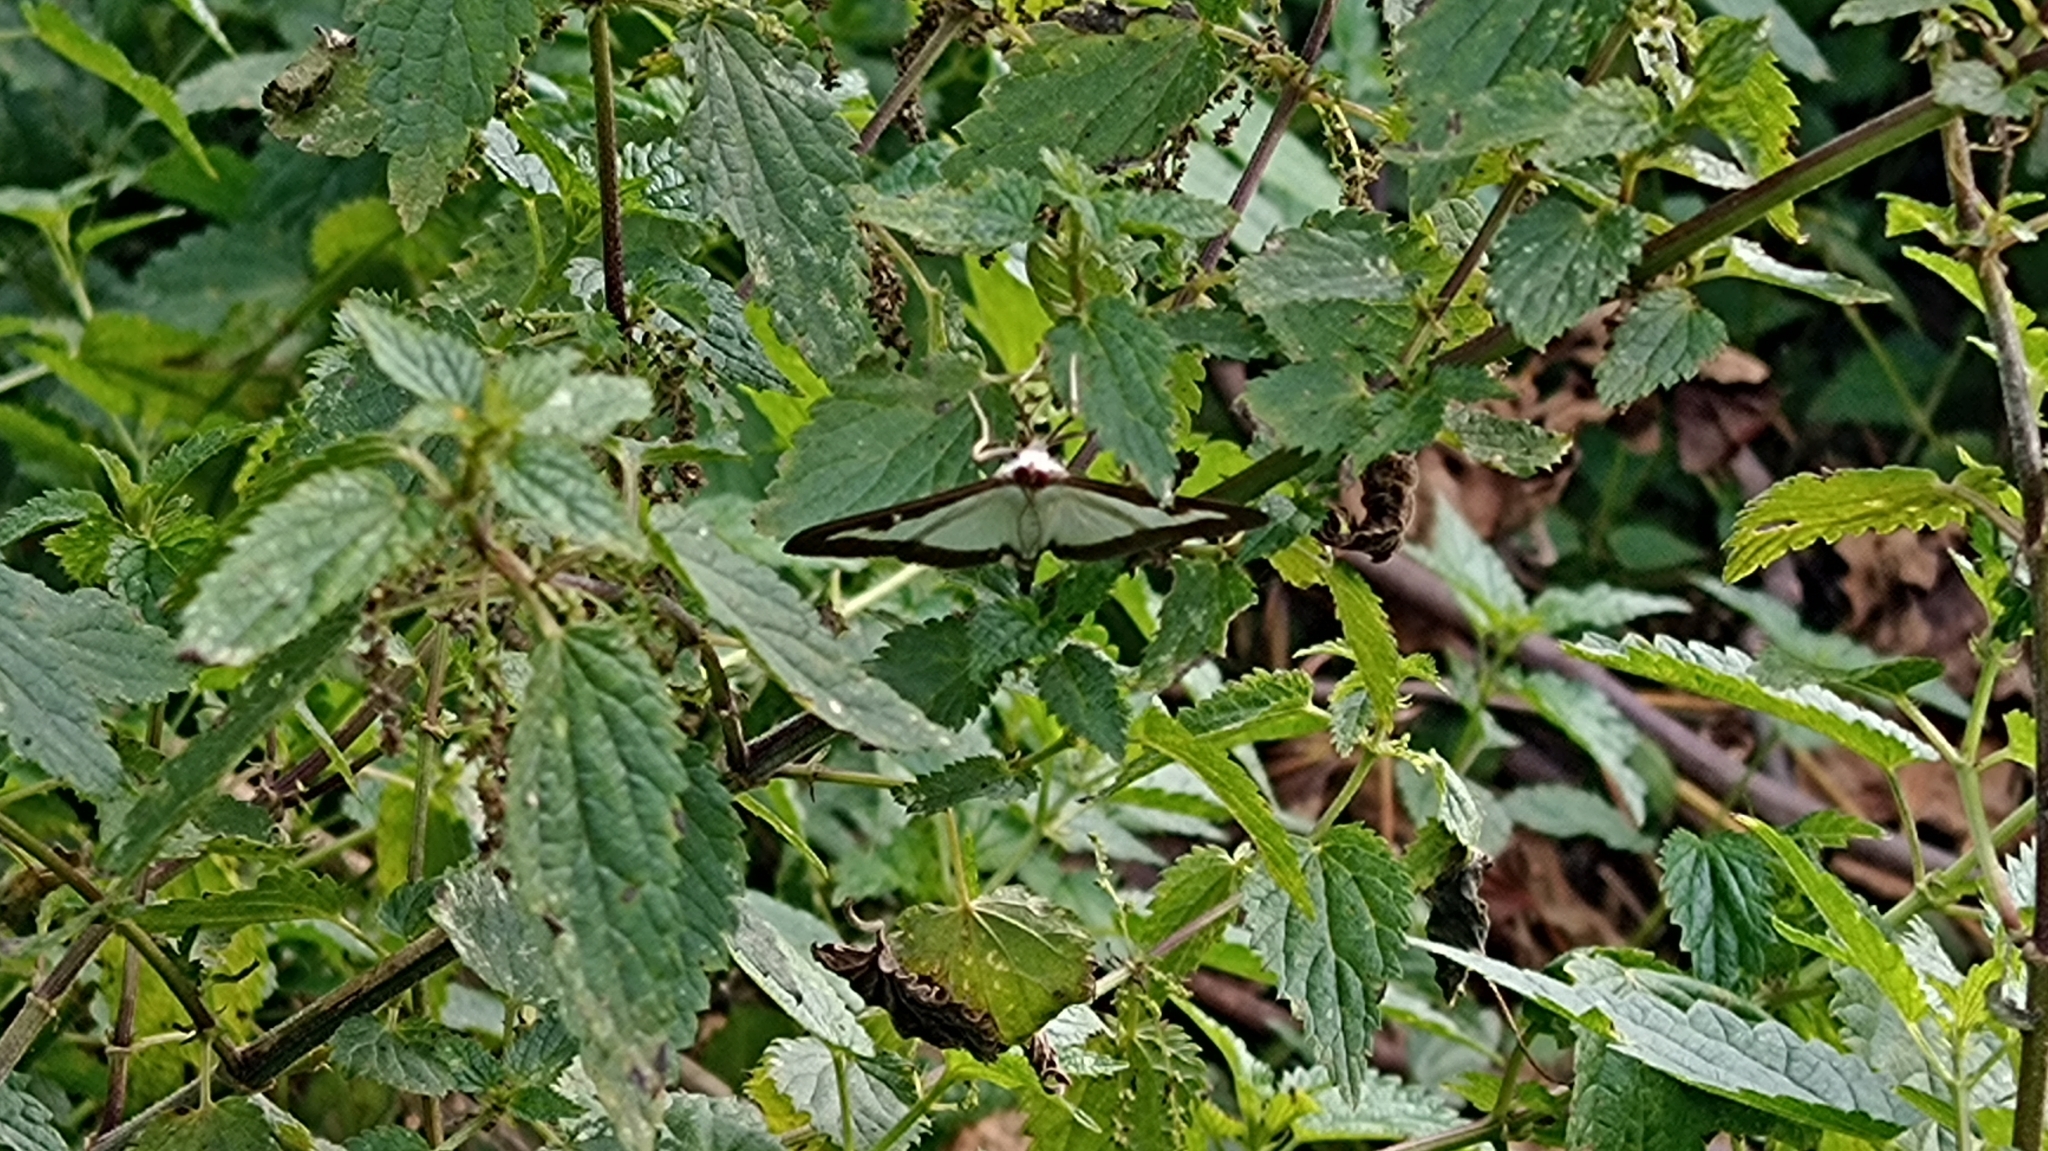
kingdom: Animalia
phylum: Arthropoda
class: Insecta
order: Lepidoptera
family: Crambidae
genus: Cydalima
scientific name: Cydalima perspectalis
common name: Box tree moth
